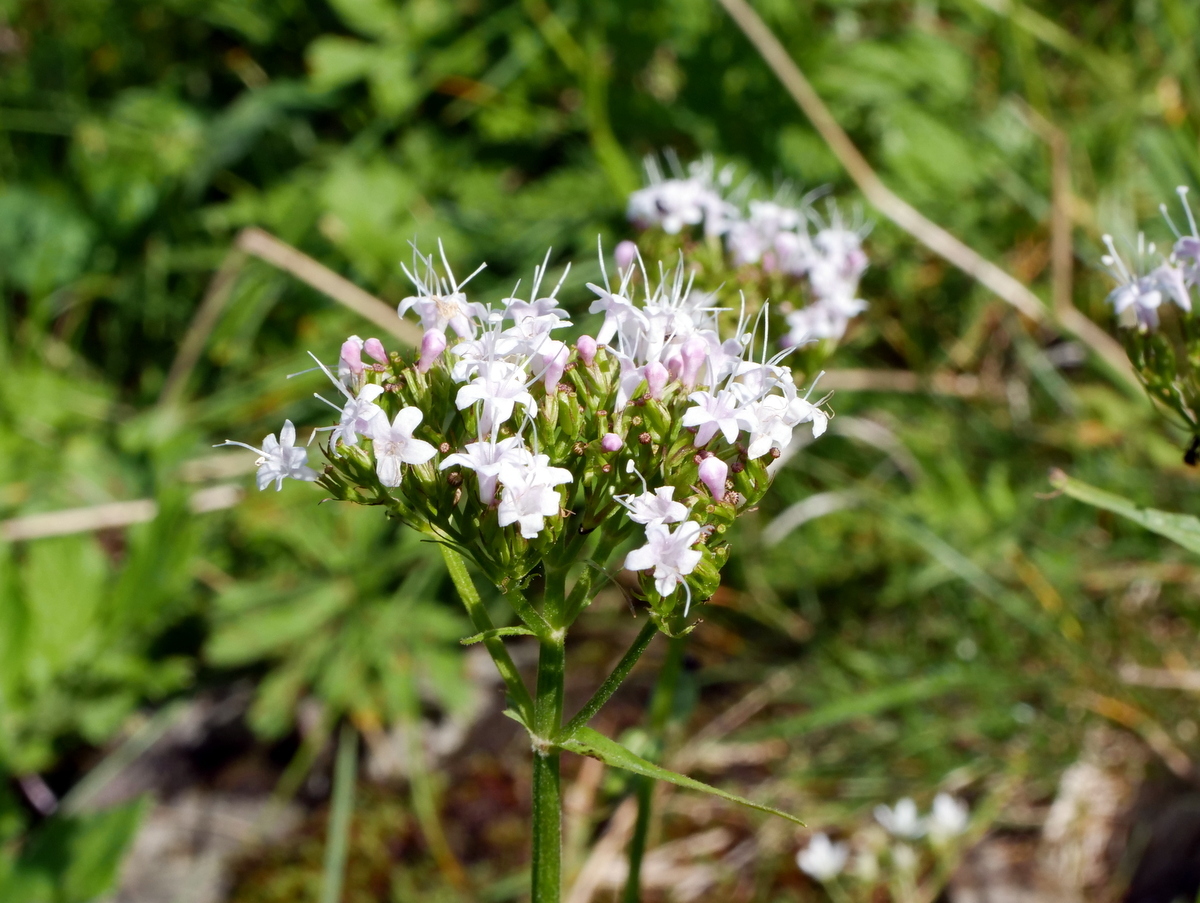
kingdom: Plantae
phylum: Tracheophyta
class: Magnoliopsida
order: Dipsacales
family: Caprifoliaceae
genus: Valeriana
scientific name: Valeriana montana
